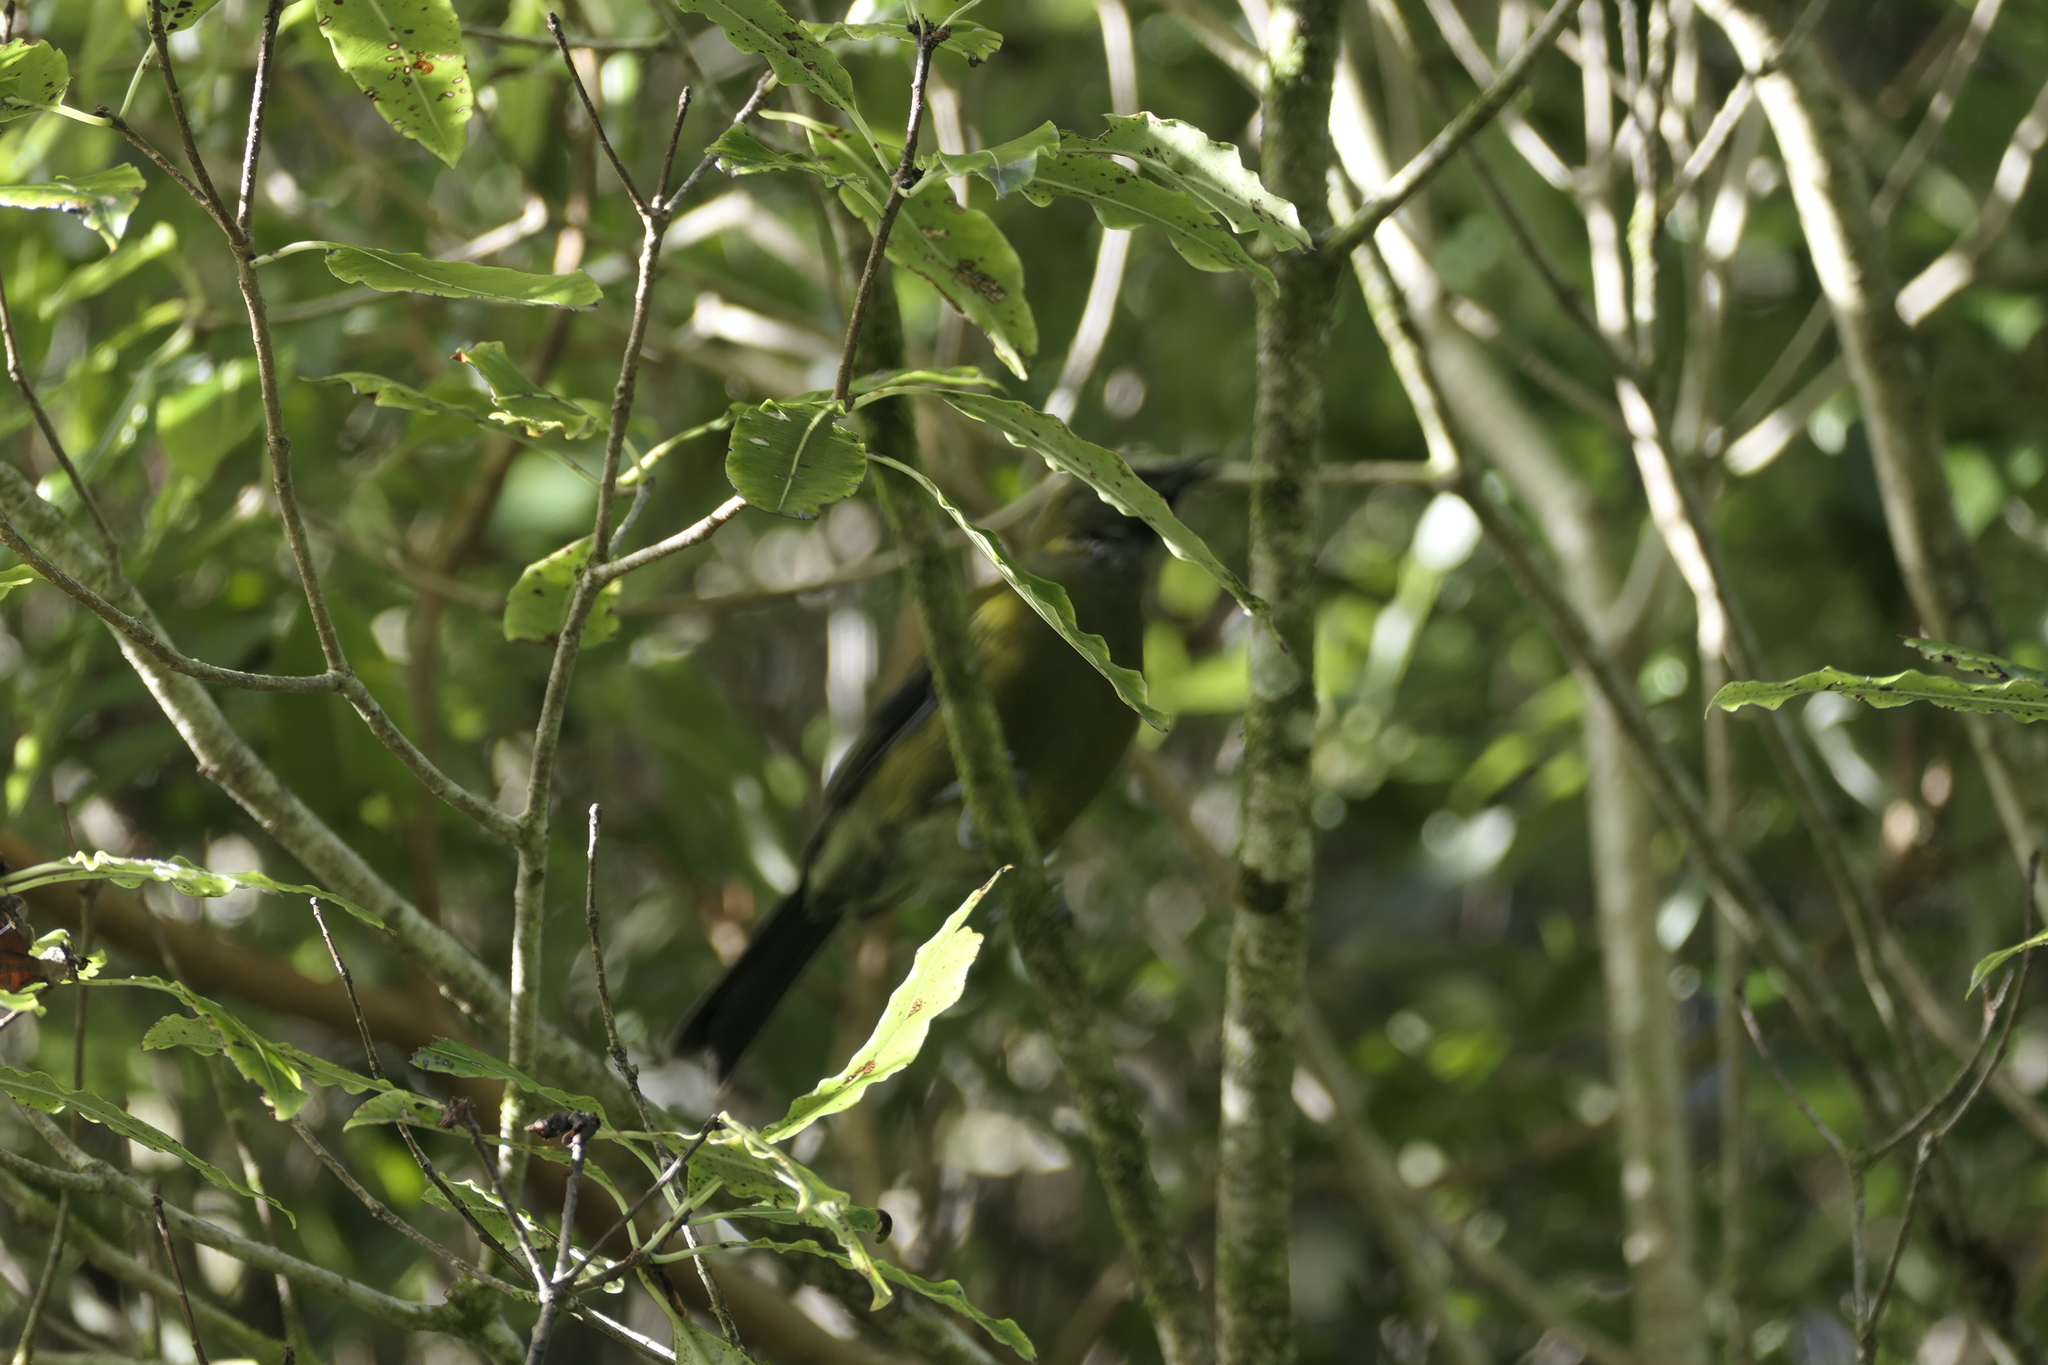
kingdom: Animalia
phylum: Chordata
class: Aves
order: Passeriformes
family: Meliphagidae
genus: Anthornis
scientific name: Anthornis melanura
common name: New zealand bellbird
